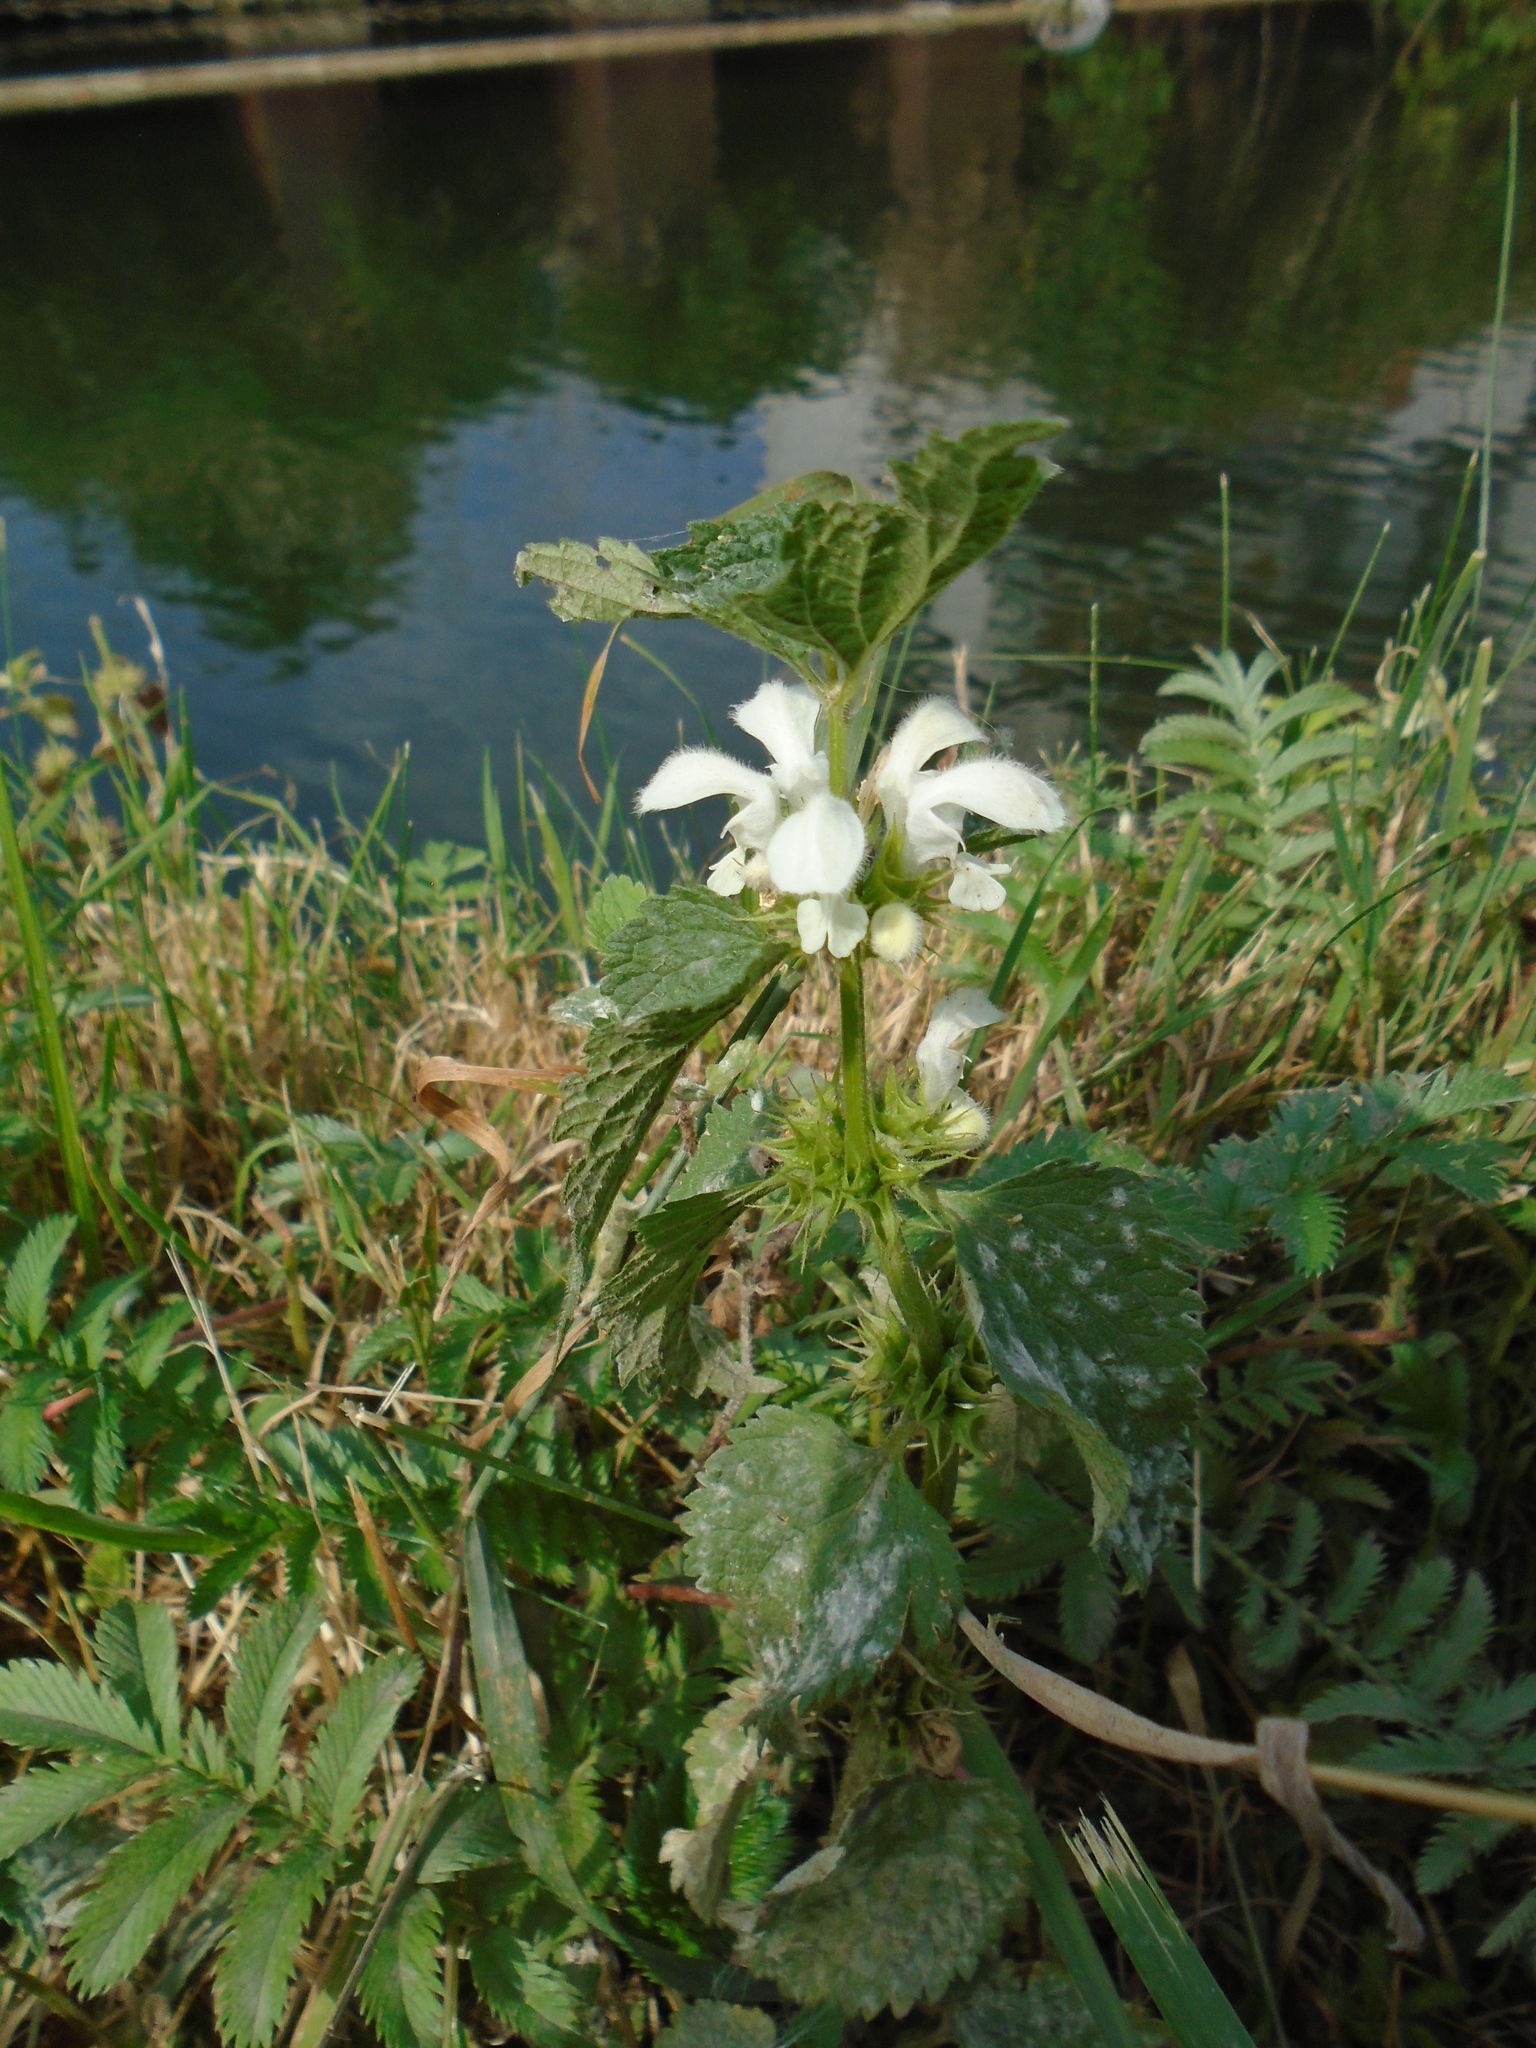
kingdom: Plantae
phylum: Tracheophyta
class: Magnoliopsida
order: Lamiales
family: Lamiaceae
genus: Lamium
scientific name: Lamium album
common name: White dead-nettle
